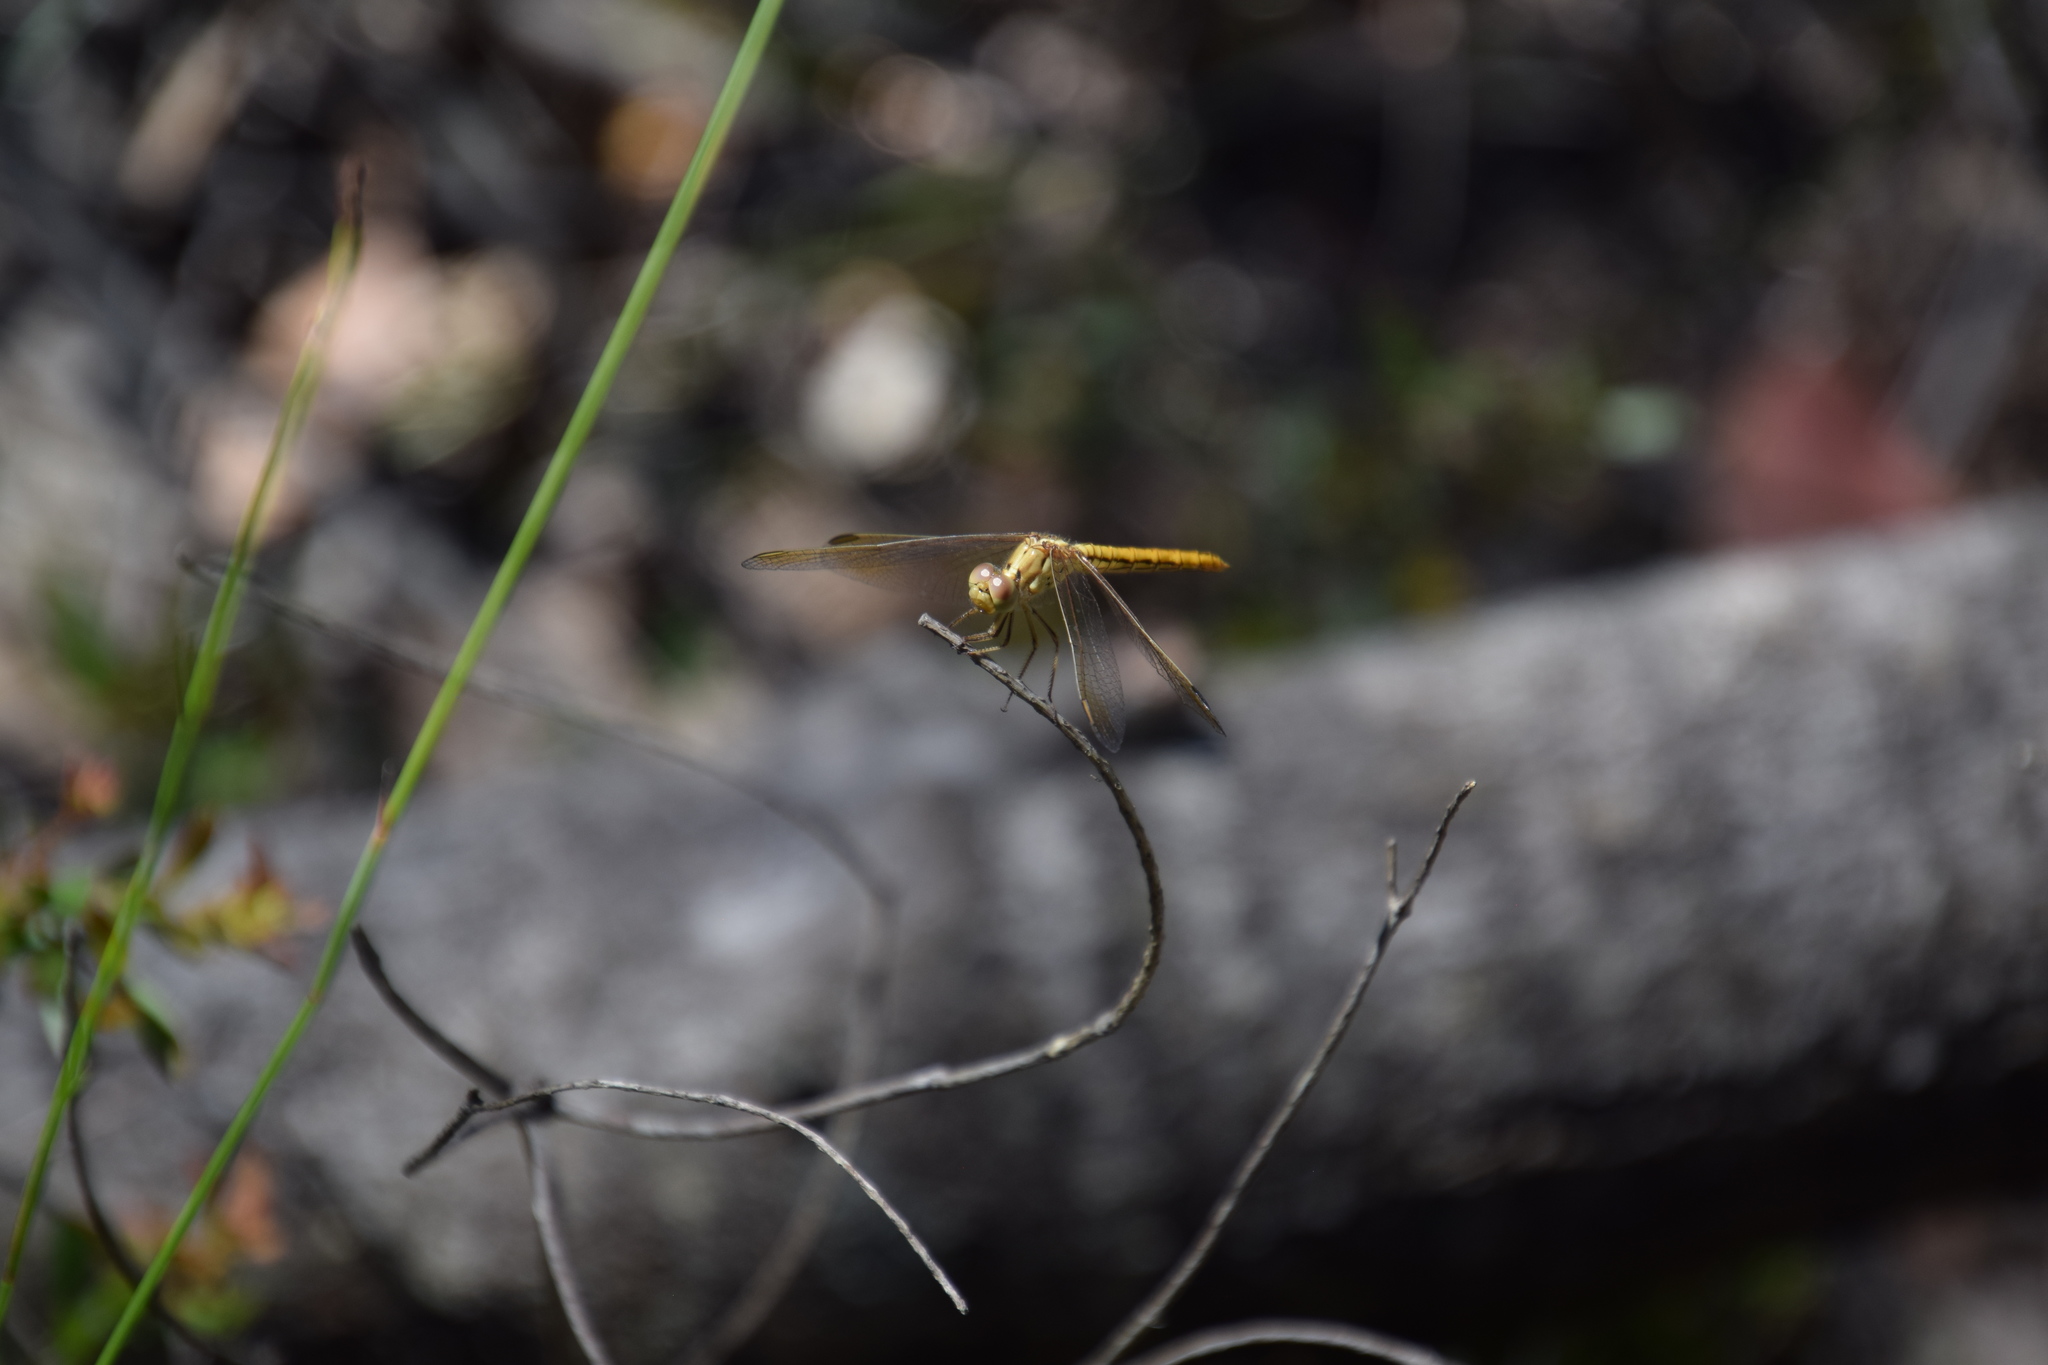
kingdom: Animalia
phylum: Arthropoda
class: Insecta
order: Odonata
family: Libellulidae
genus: Diplacodes
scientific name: Diplacodes haematodes
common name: Scarlet percher
